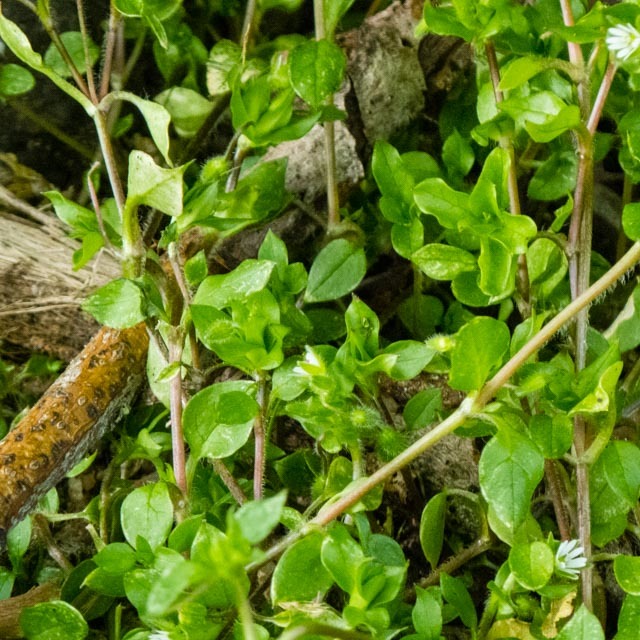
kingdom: Plantae
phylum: Tracheophyta
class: Magnoliopsida
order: Caryophyllales
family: Caryophyllaceae
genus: Stellaria
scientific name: Stellaria media
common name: Common chickweed
